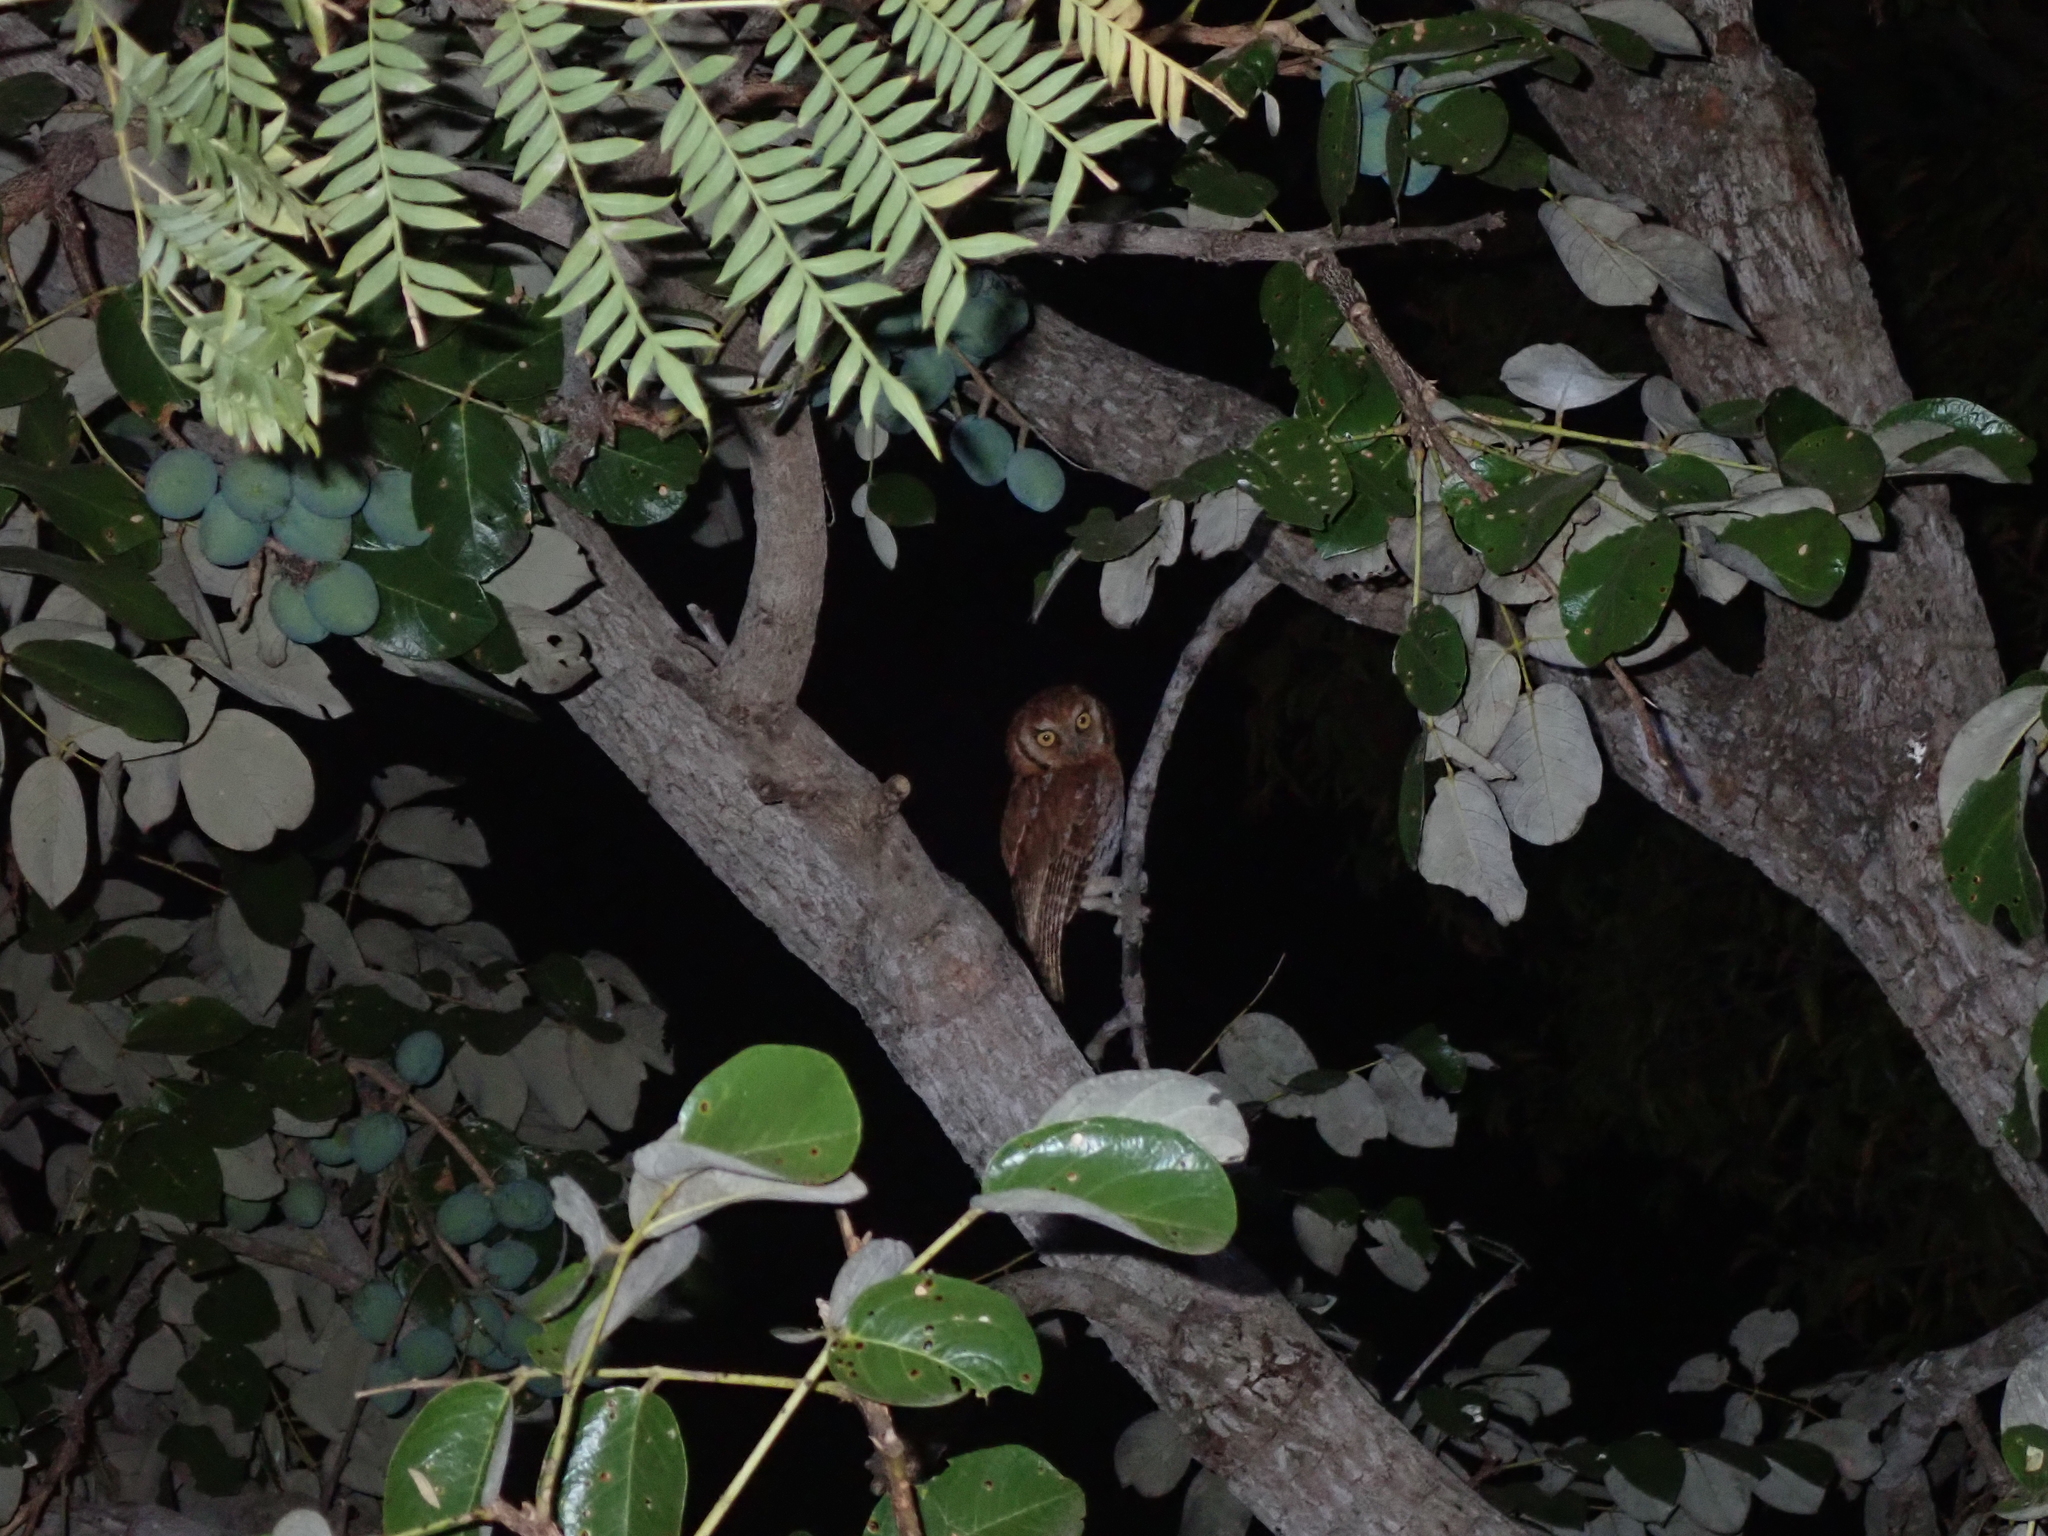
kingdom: Animalia
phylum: Chordata
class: Aves
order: Strigiformes
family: Strigidae
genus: Megascops
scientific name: Megascops choliba
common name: Tropical screech-owl
